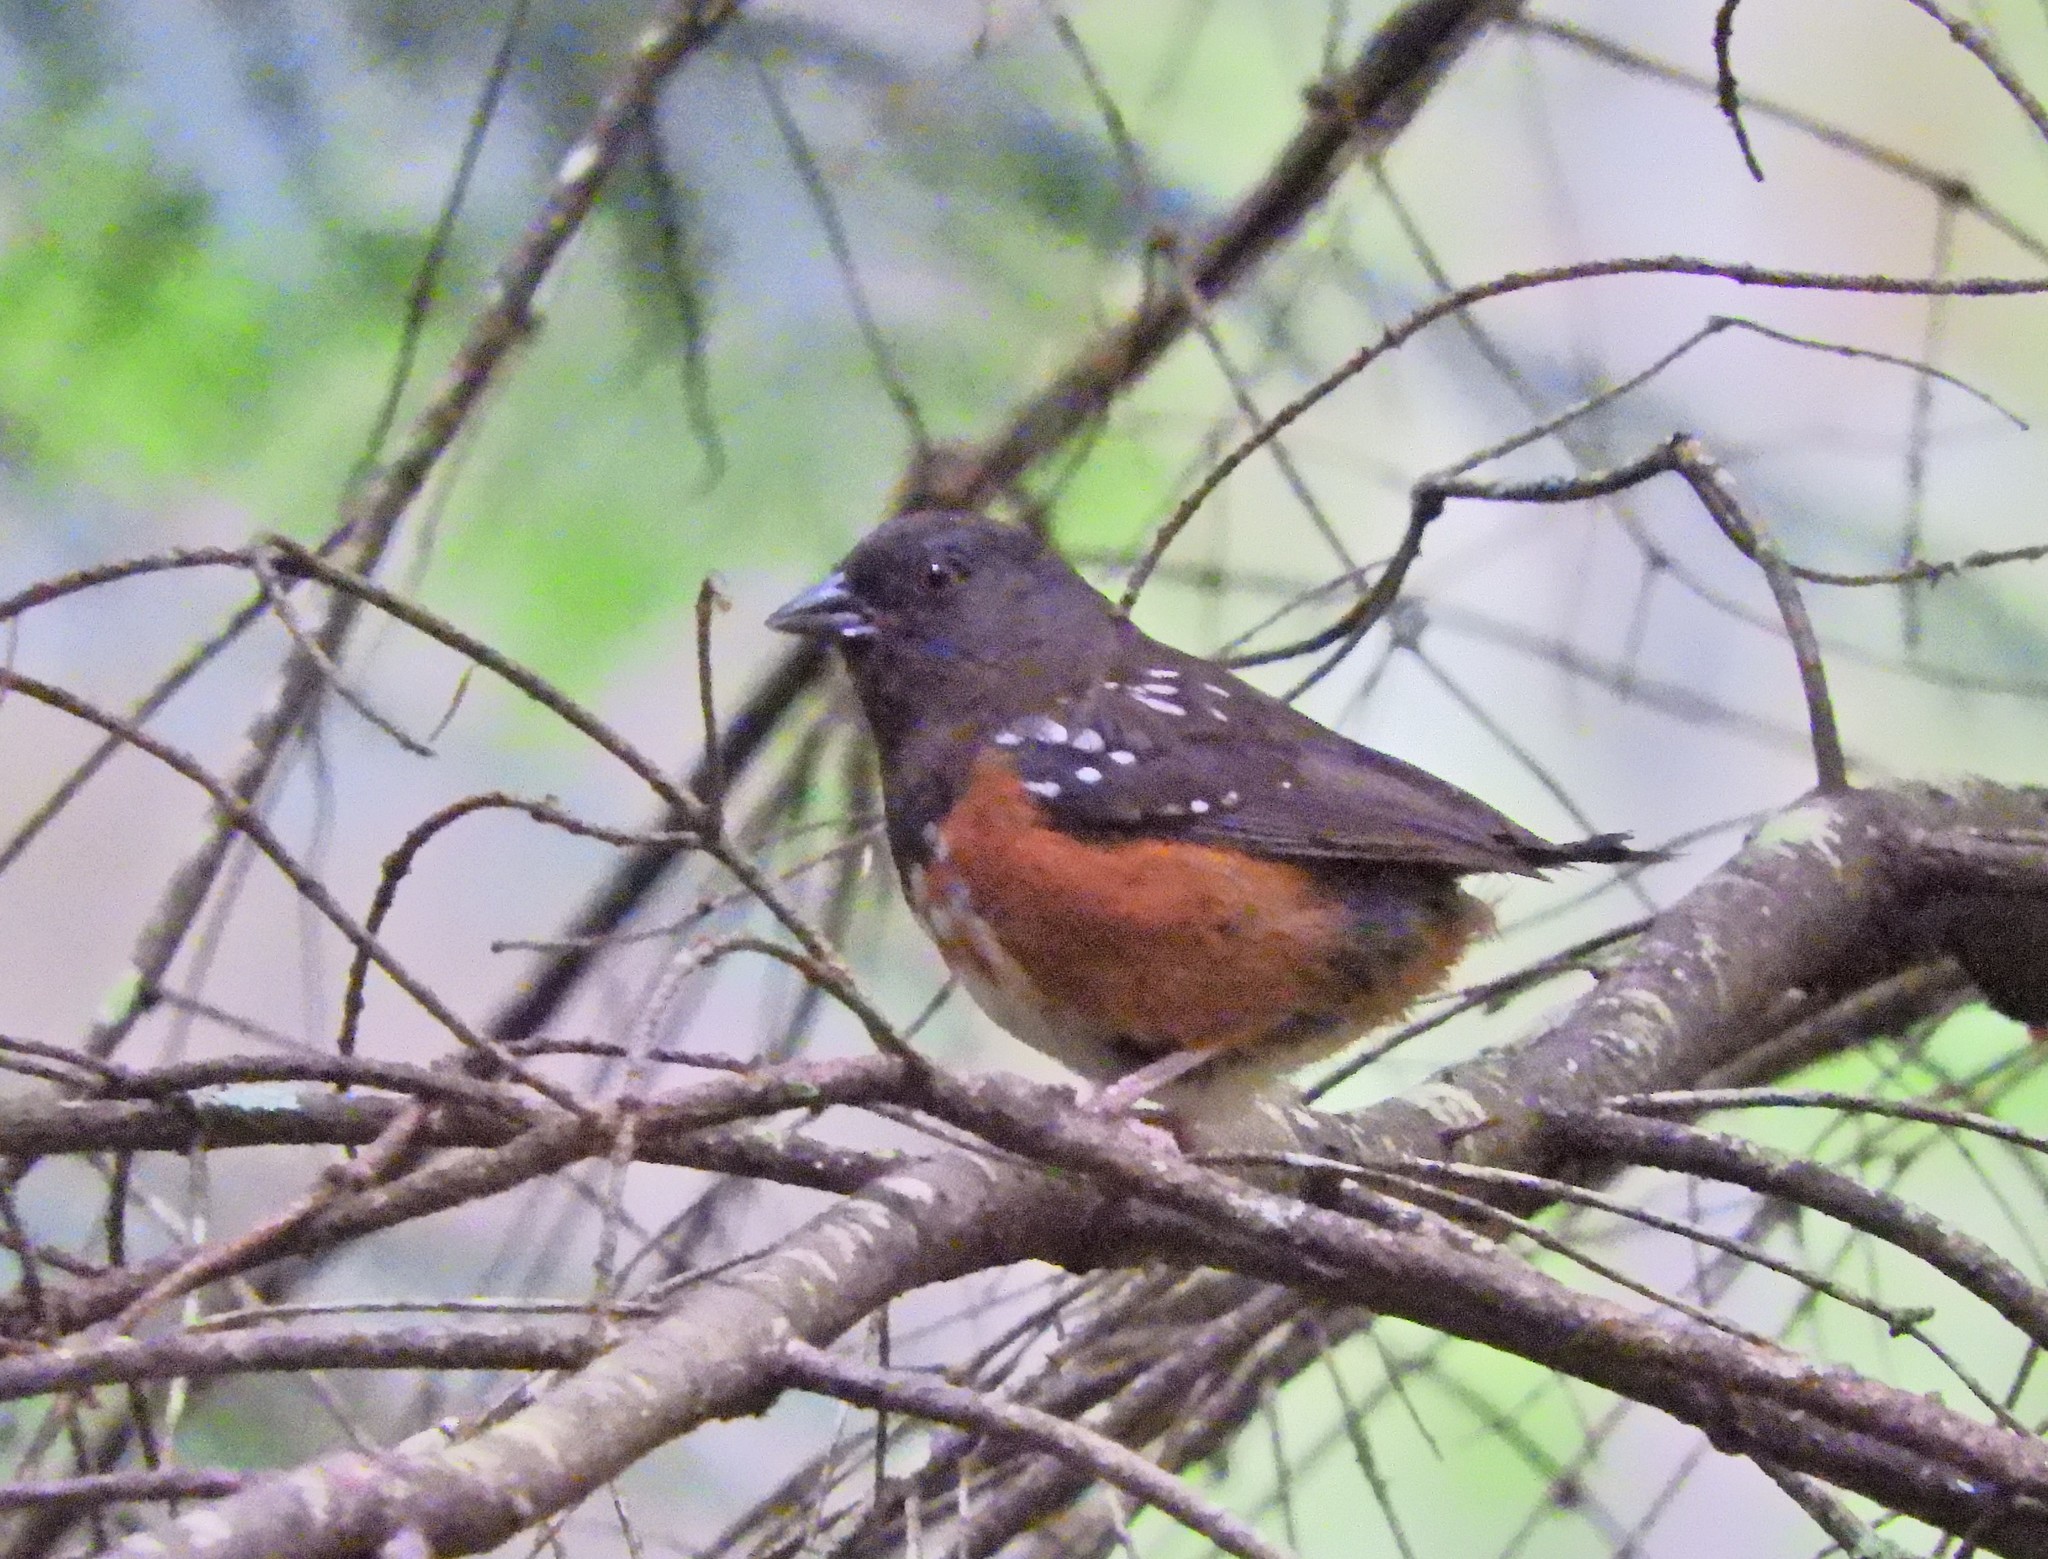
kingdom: Animalia
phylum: Chordata
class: Aves
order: Passeriformes
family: Passerellidae
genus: Pipilo
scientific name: Pipilo maculatus
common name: Spotted towhee
